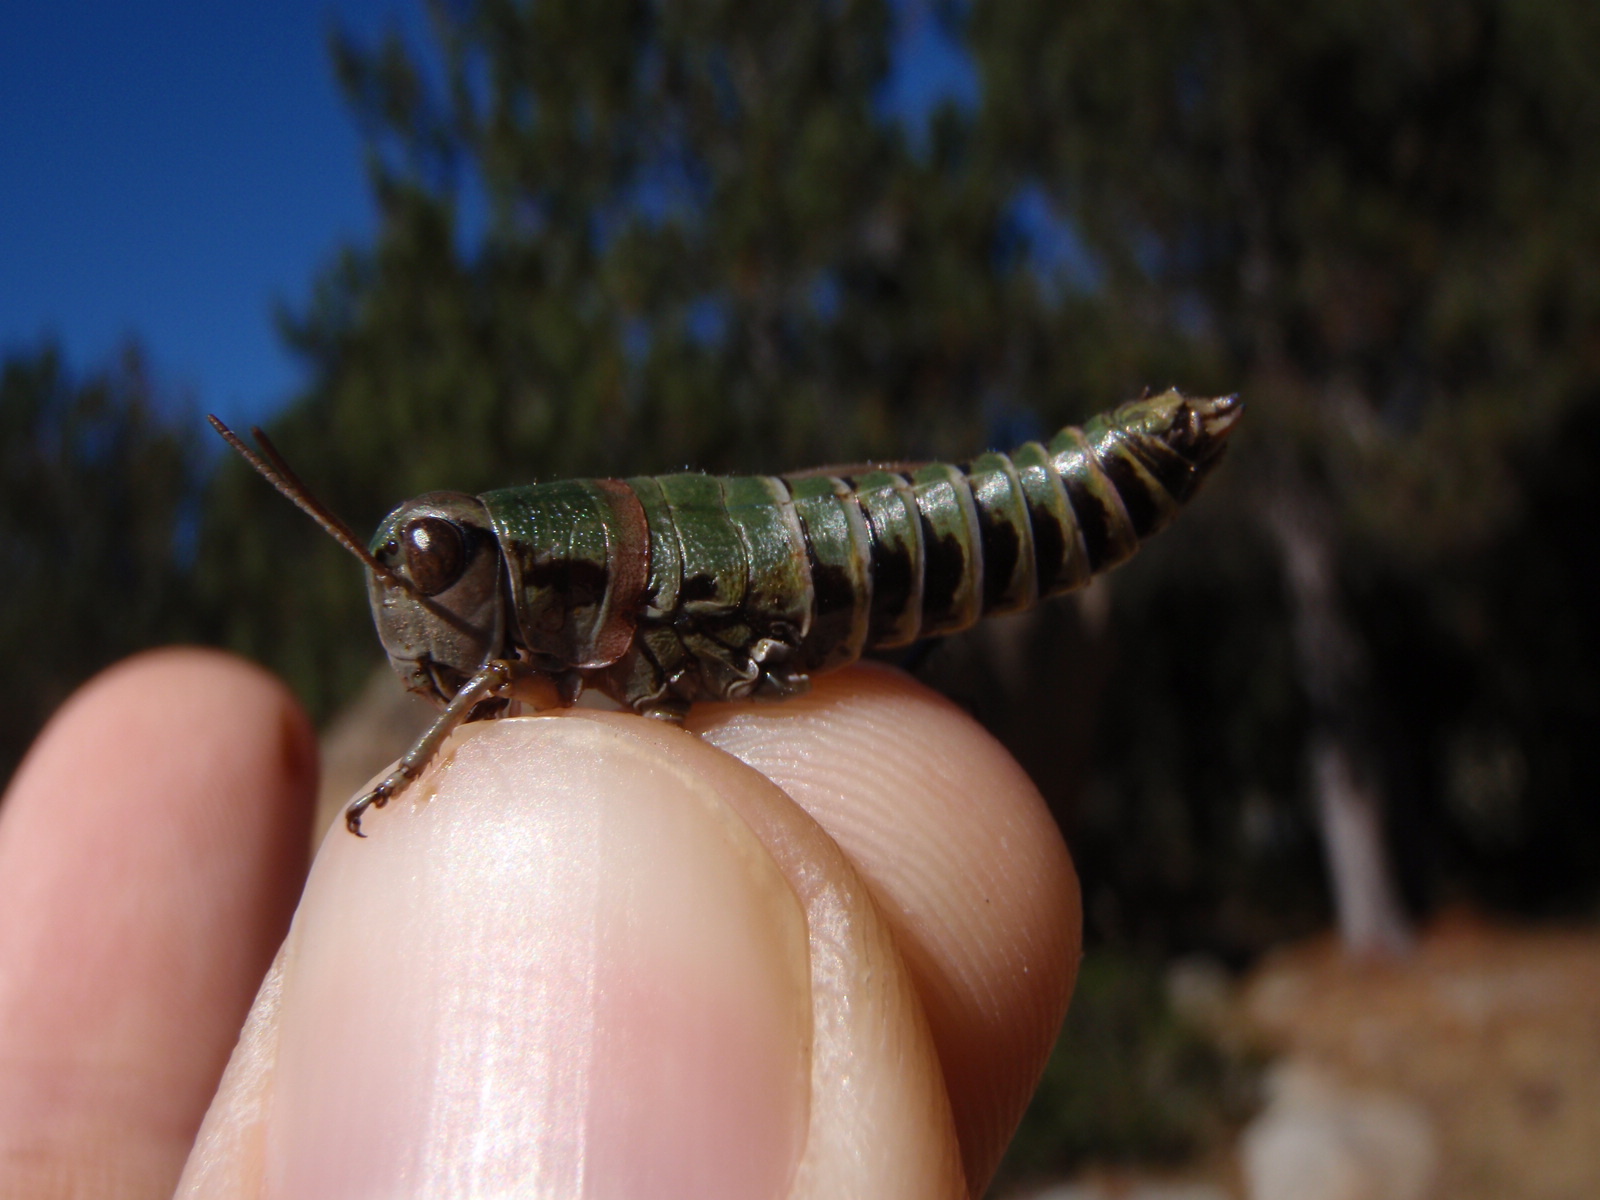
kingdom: Animalia
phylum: Arthropoda
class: Insecta
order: Orthoptera
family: Acrididae
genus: Cophopodisma
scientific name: Cophopodisma pyrenaea
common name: Pyrenean mountain grasshopper
